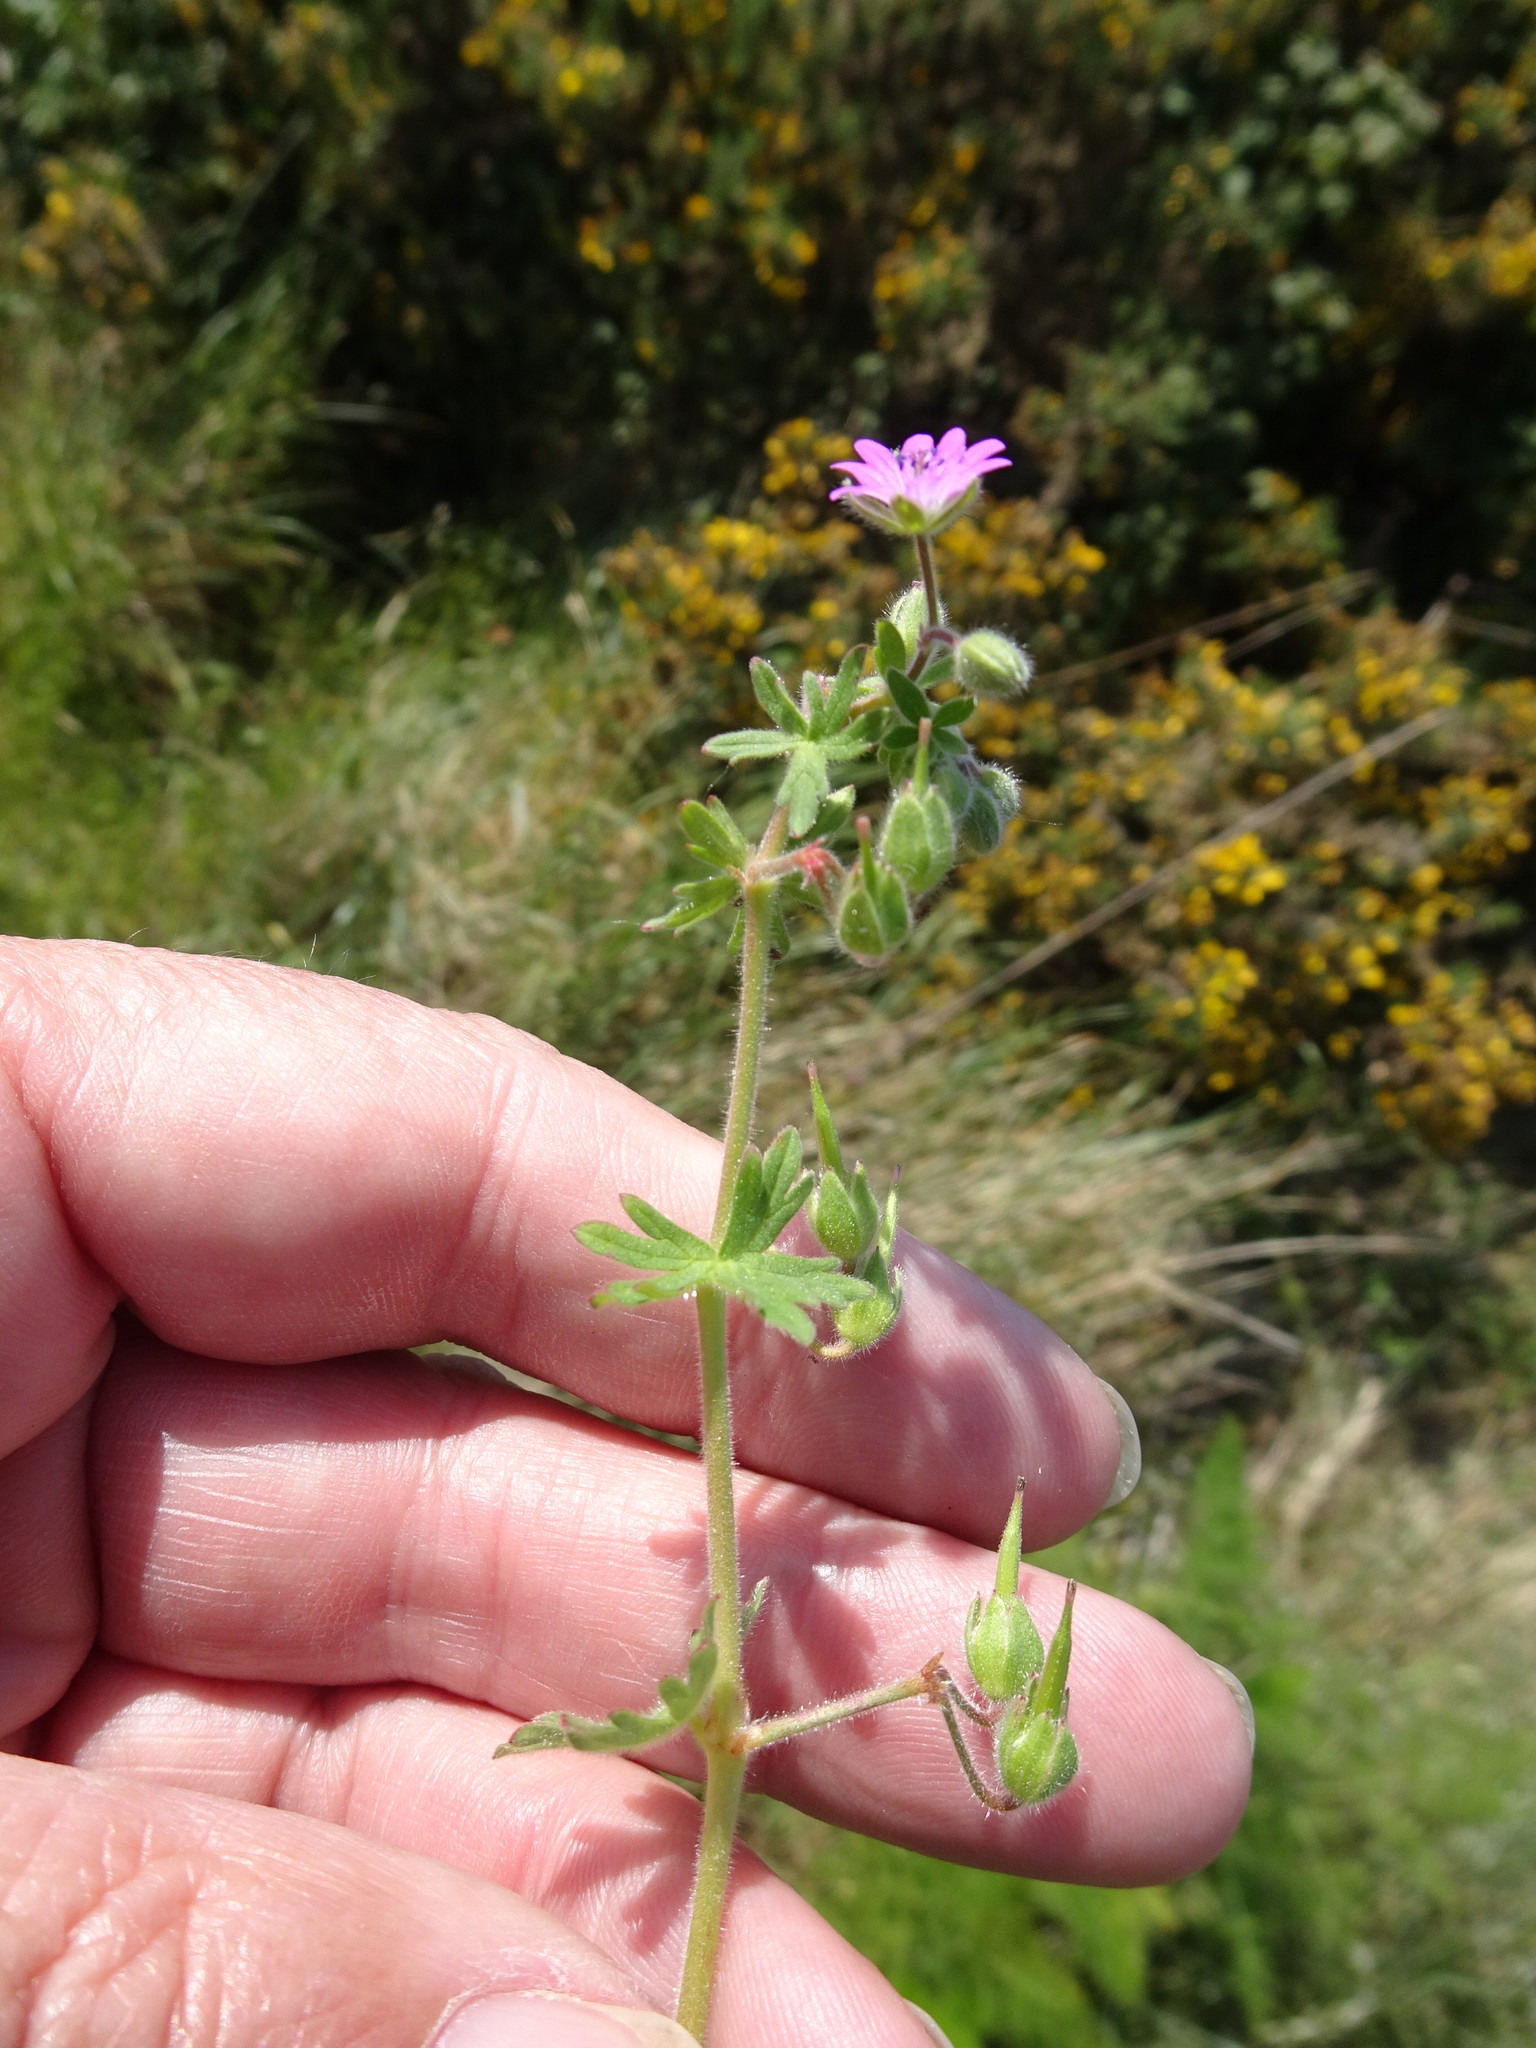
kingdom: Plantae
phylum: Tracheophyta
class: Magnoliopsida
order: Geraniales
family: Geraniaceae
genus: Geranium
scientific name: Geranium molle
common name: Dove's-foot crane's-bill
